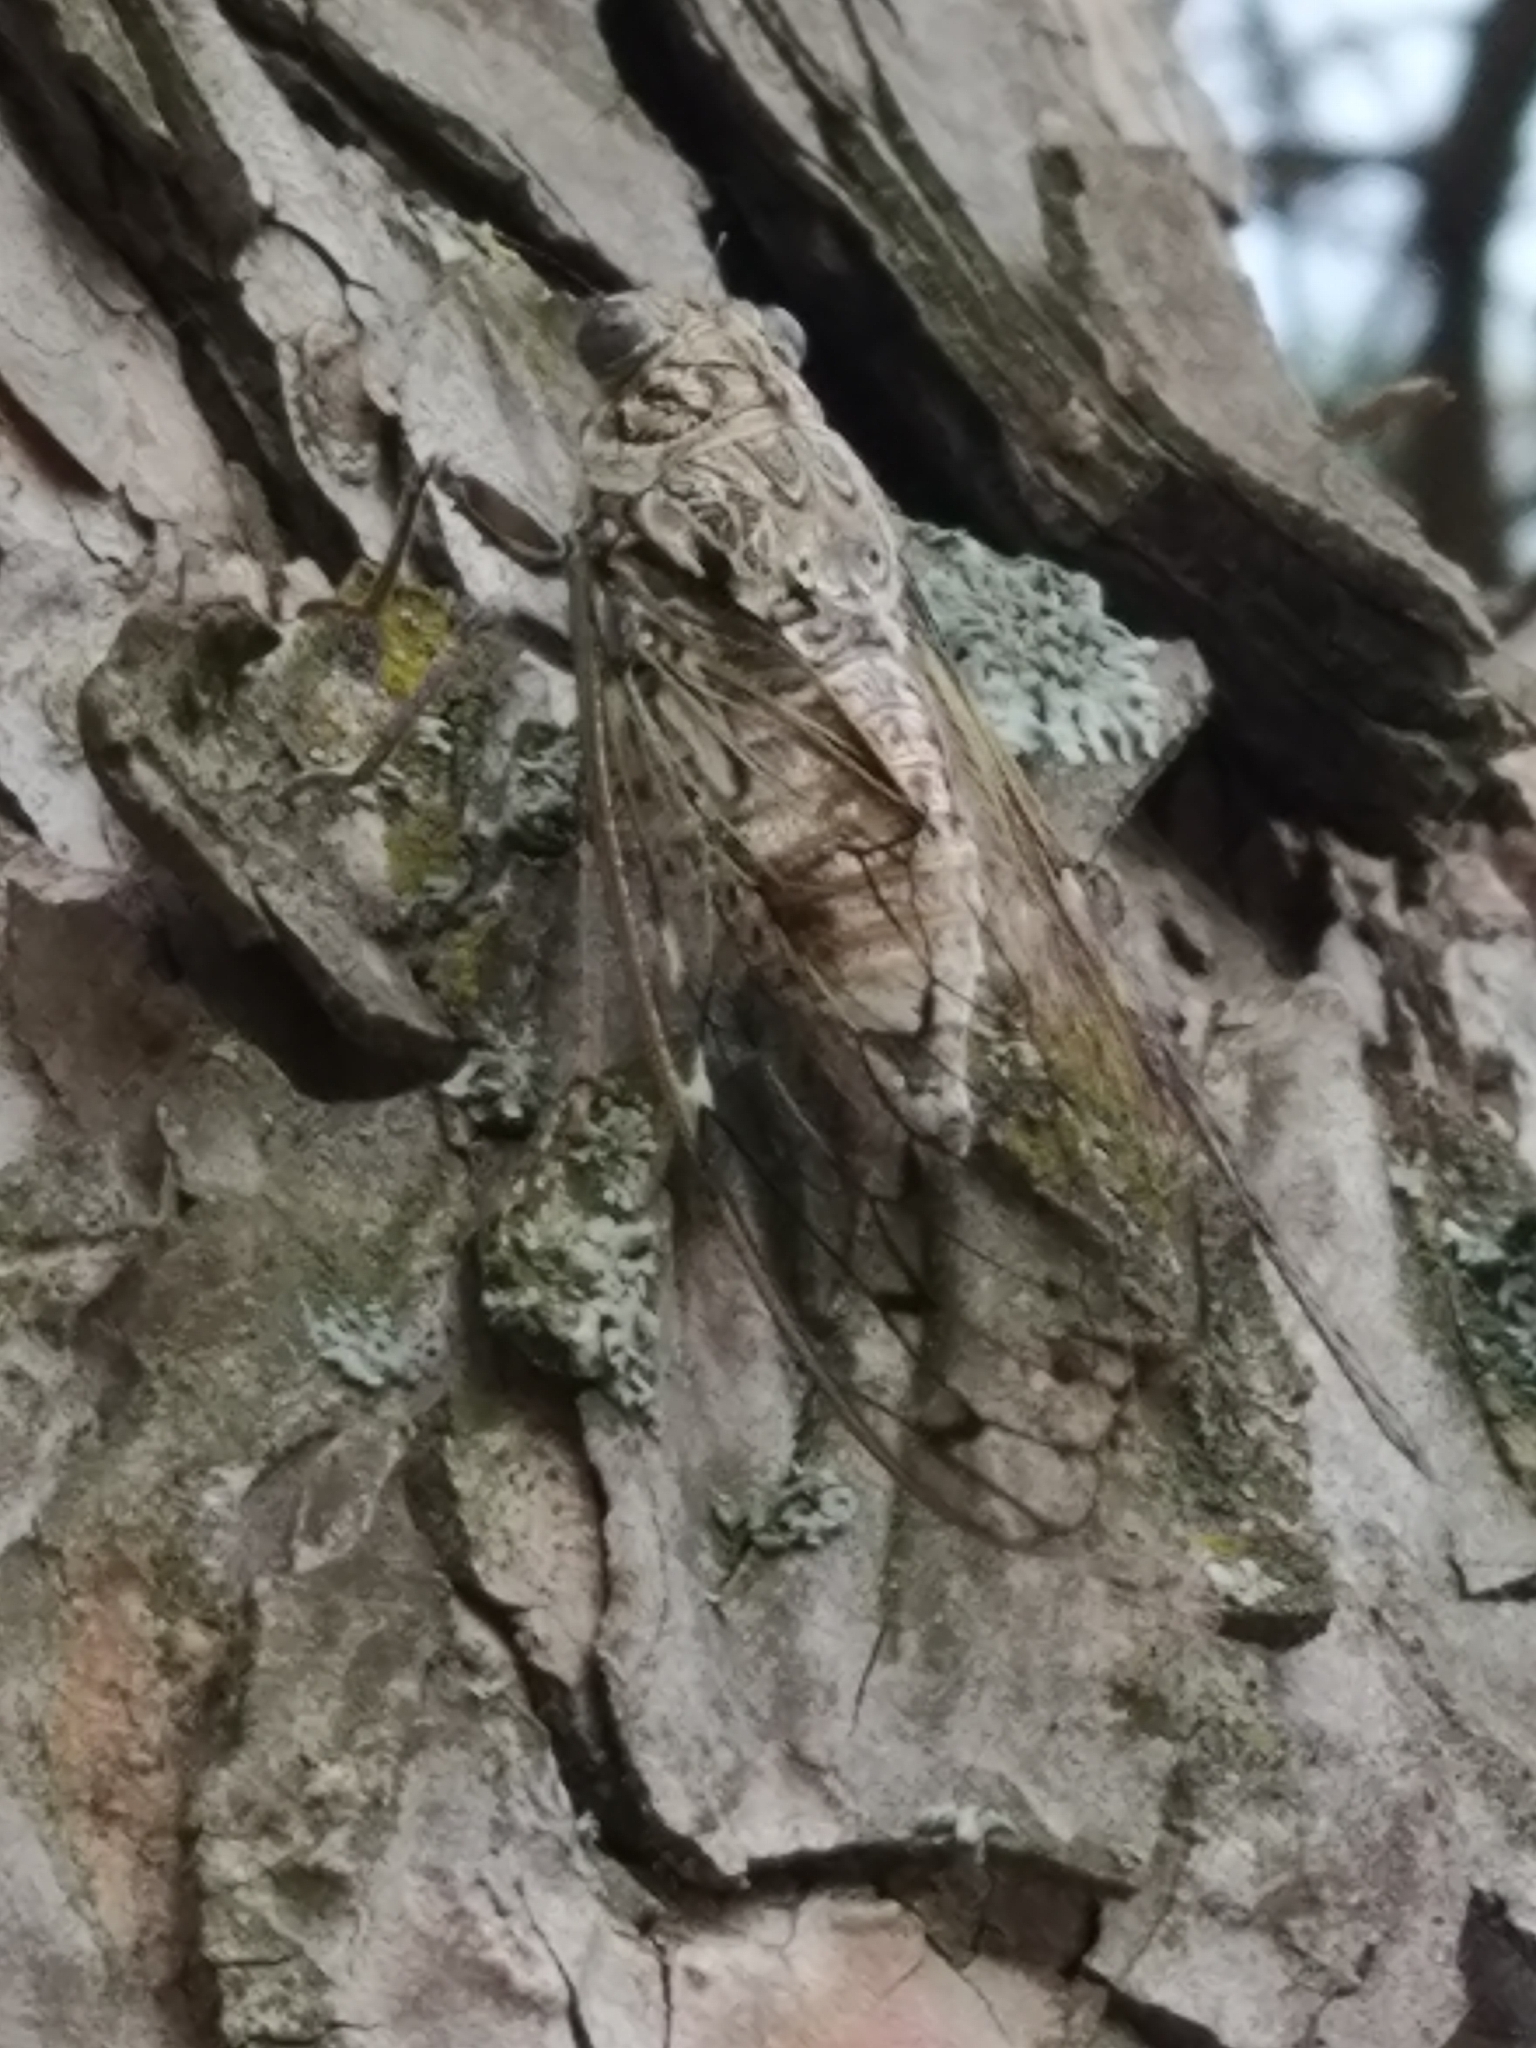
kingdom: Animalia
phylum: Arthropoda
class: Insecta
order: Hemiptera
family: Cicadidae
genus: Cicada
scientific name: Cicada orni
